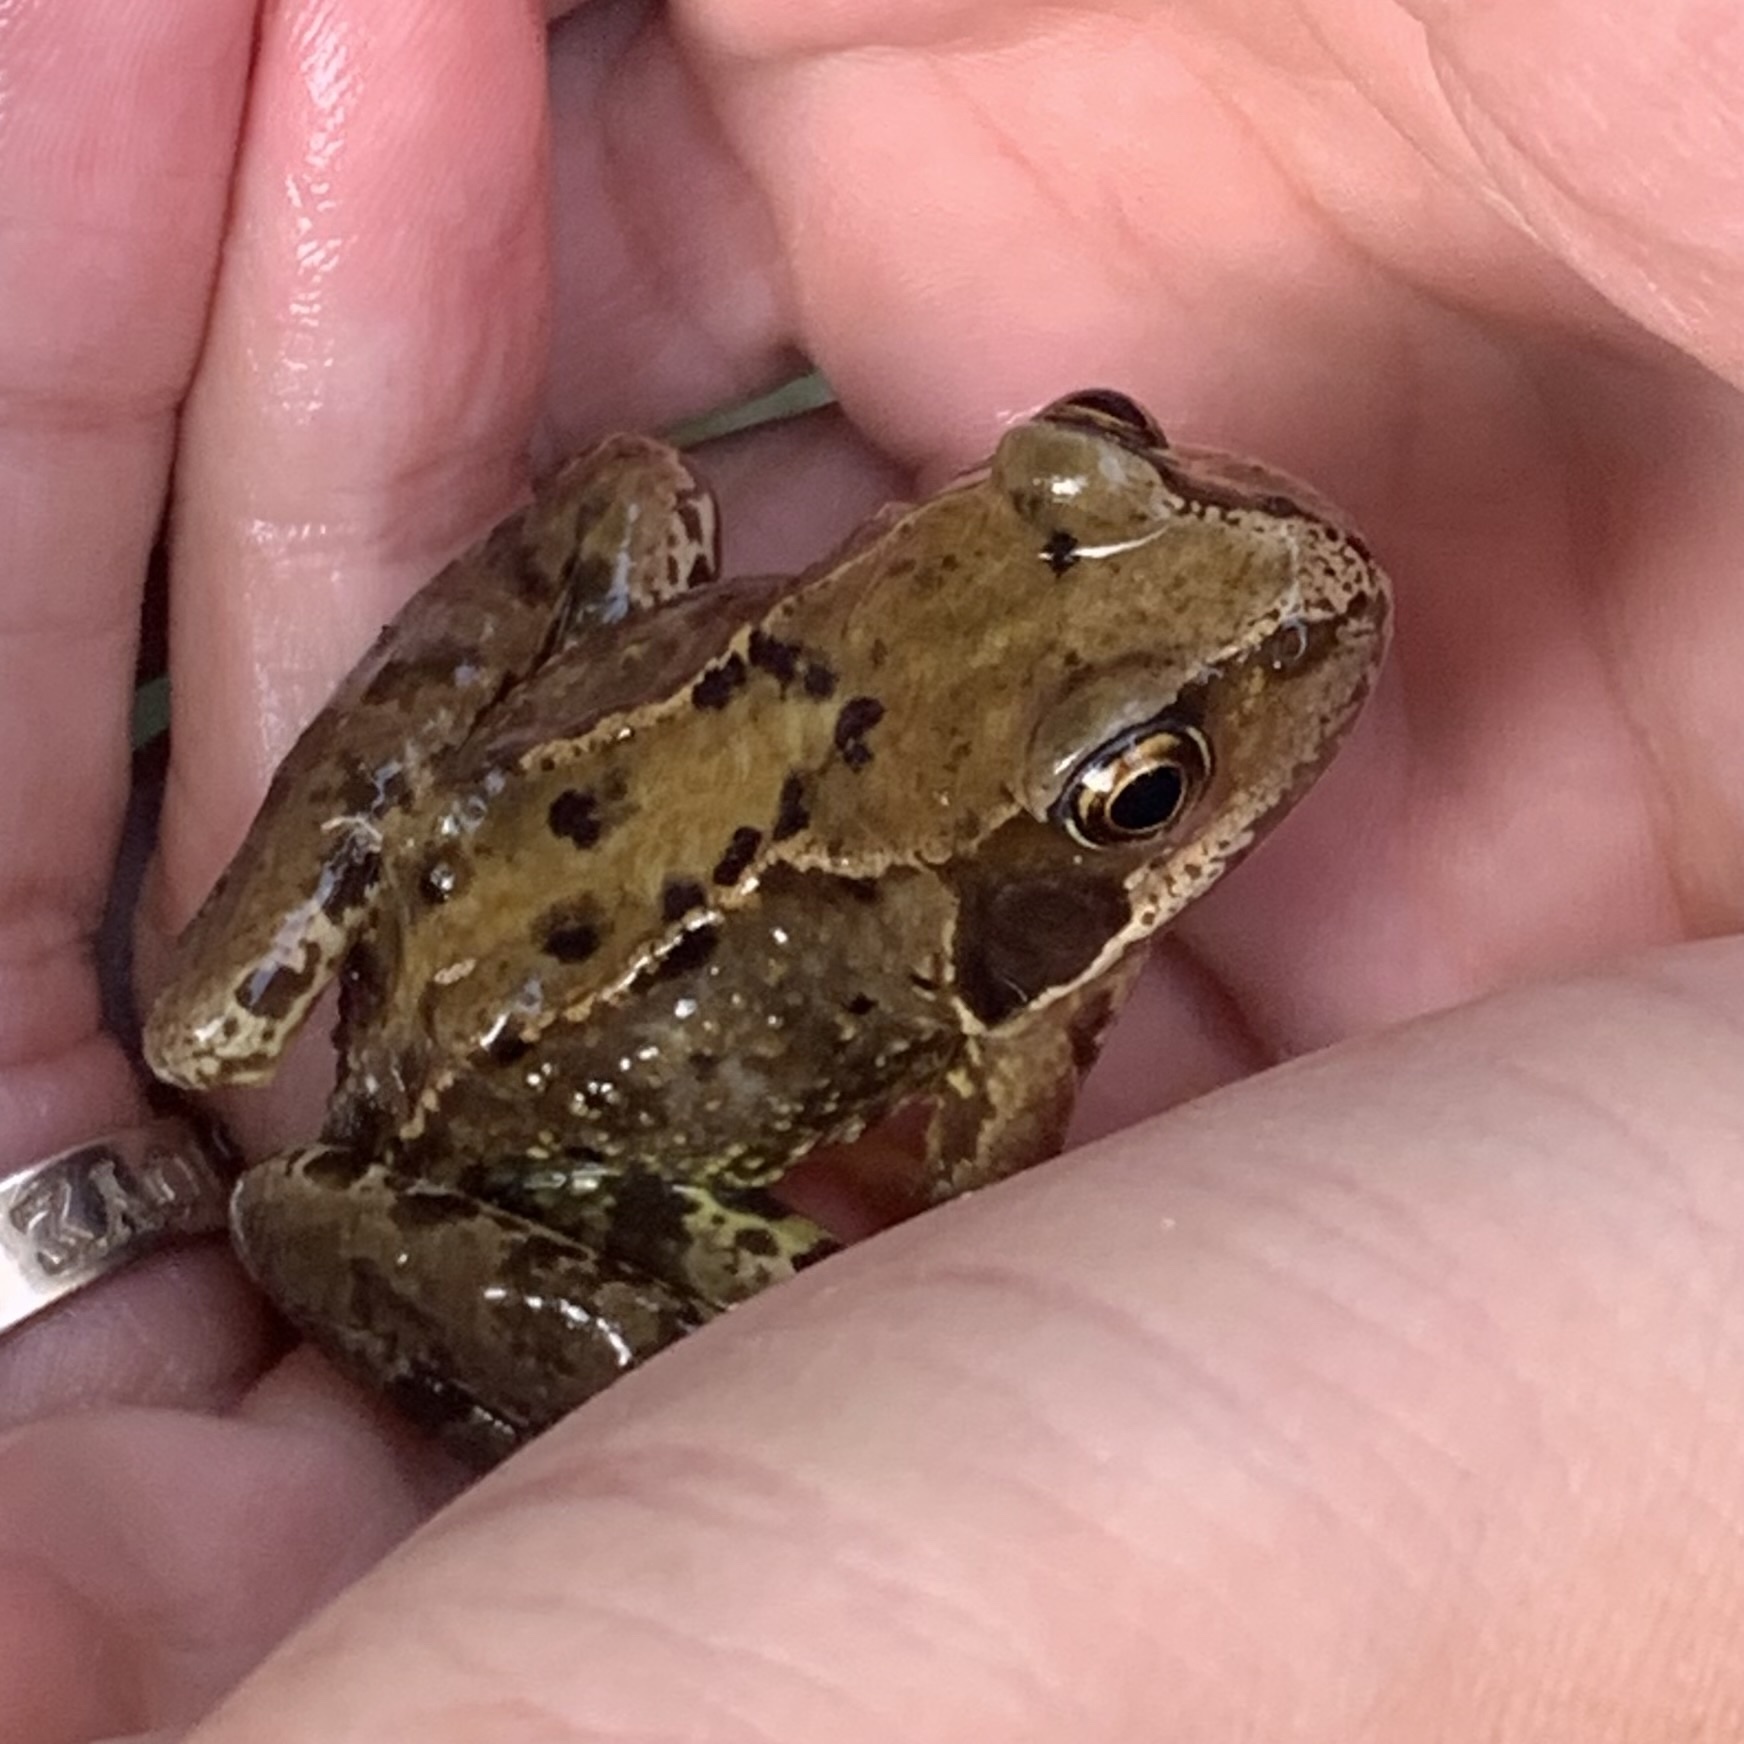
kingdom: Animalia
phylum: Chordata
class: Amphibia
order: Anura
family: Ranidae
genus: Rana
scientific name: Rana temporaria
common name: Common frog
